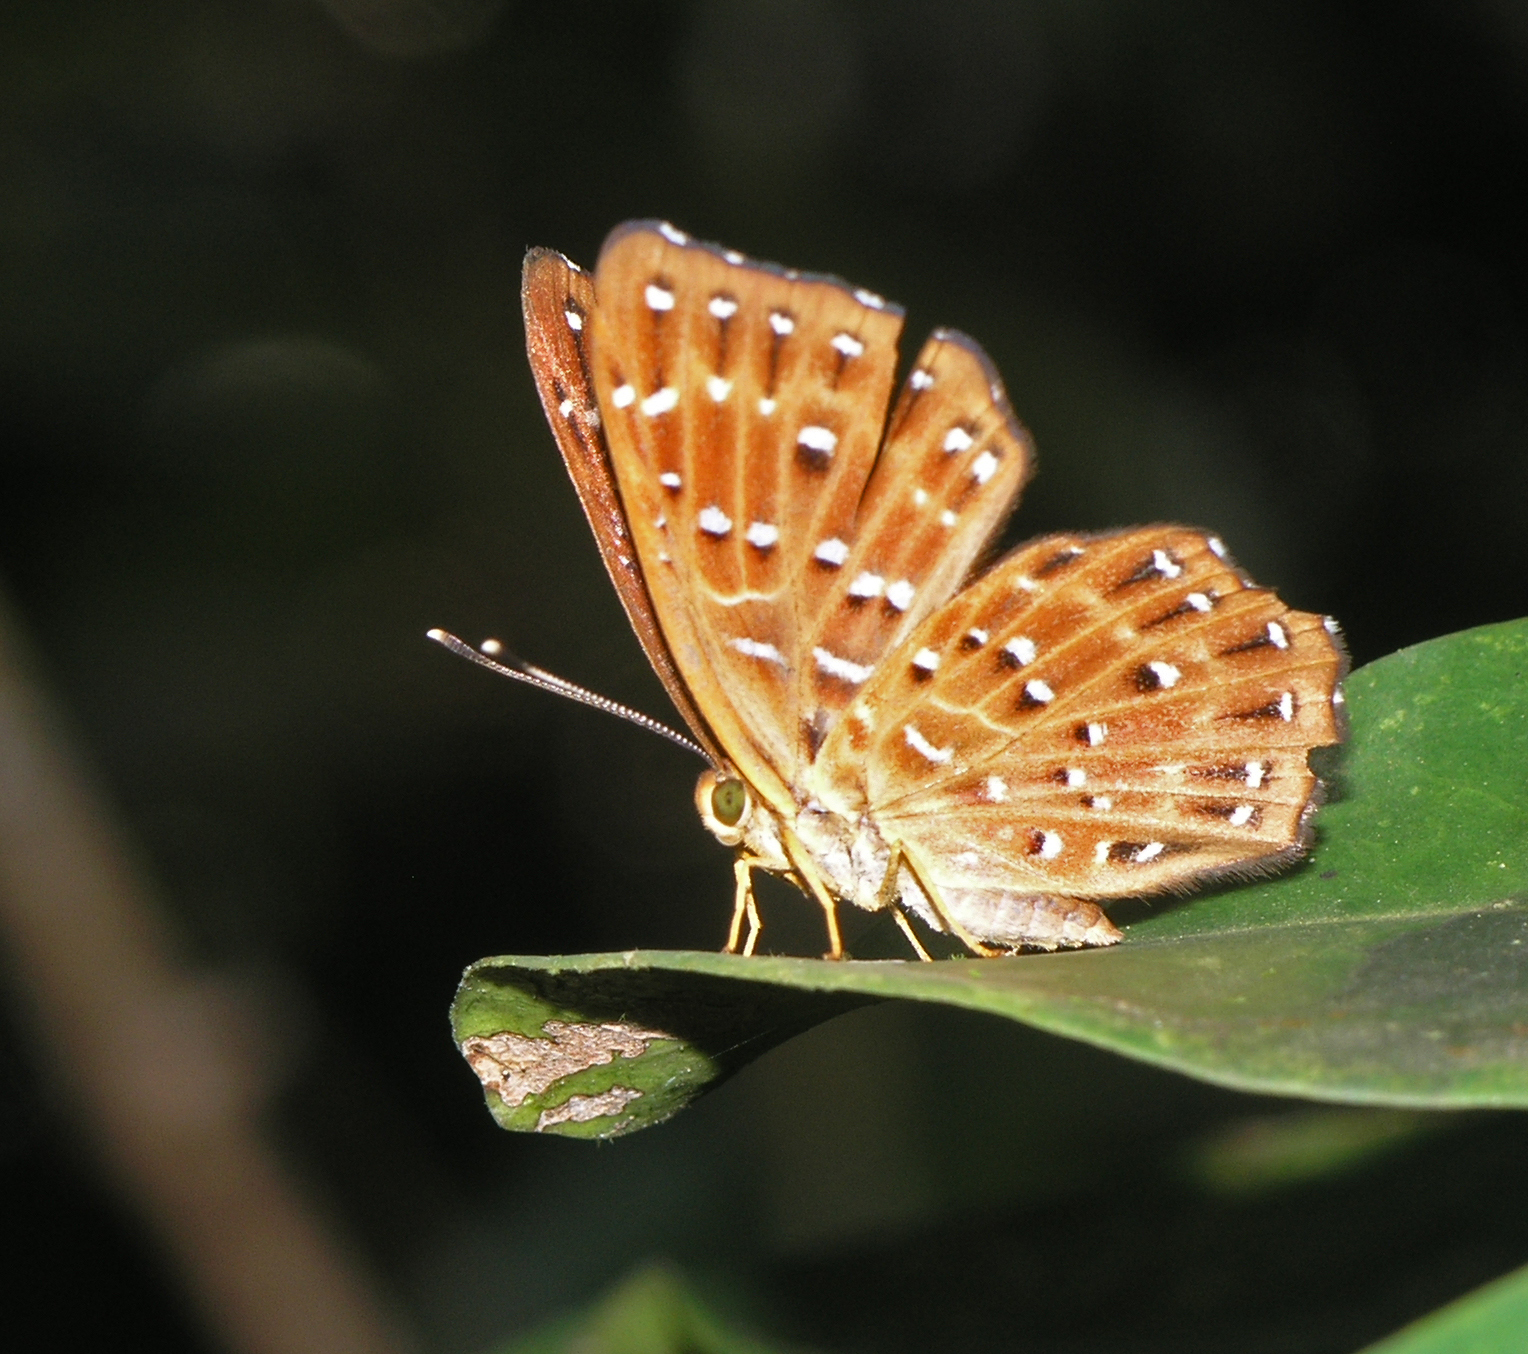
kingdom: Animalia
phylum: Arthropoda
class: Insecta
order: Lepidoptera
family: Riodinidae
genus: Zemeros
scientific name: Zemeros flegyas
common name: Punchinello
